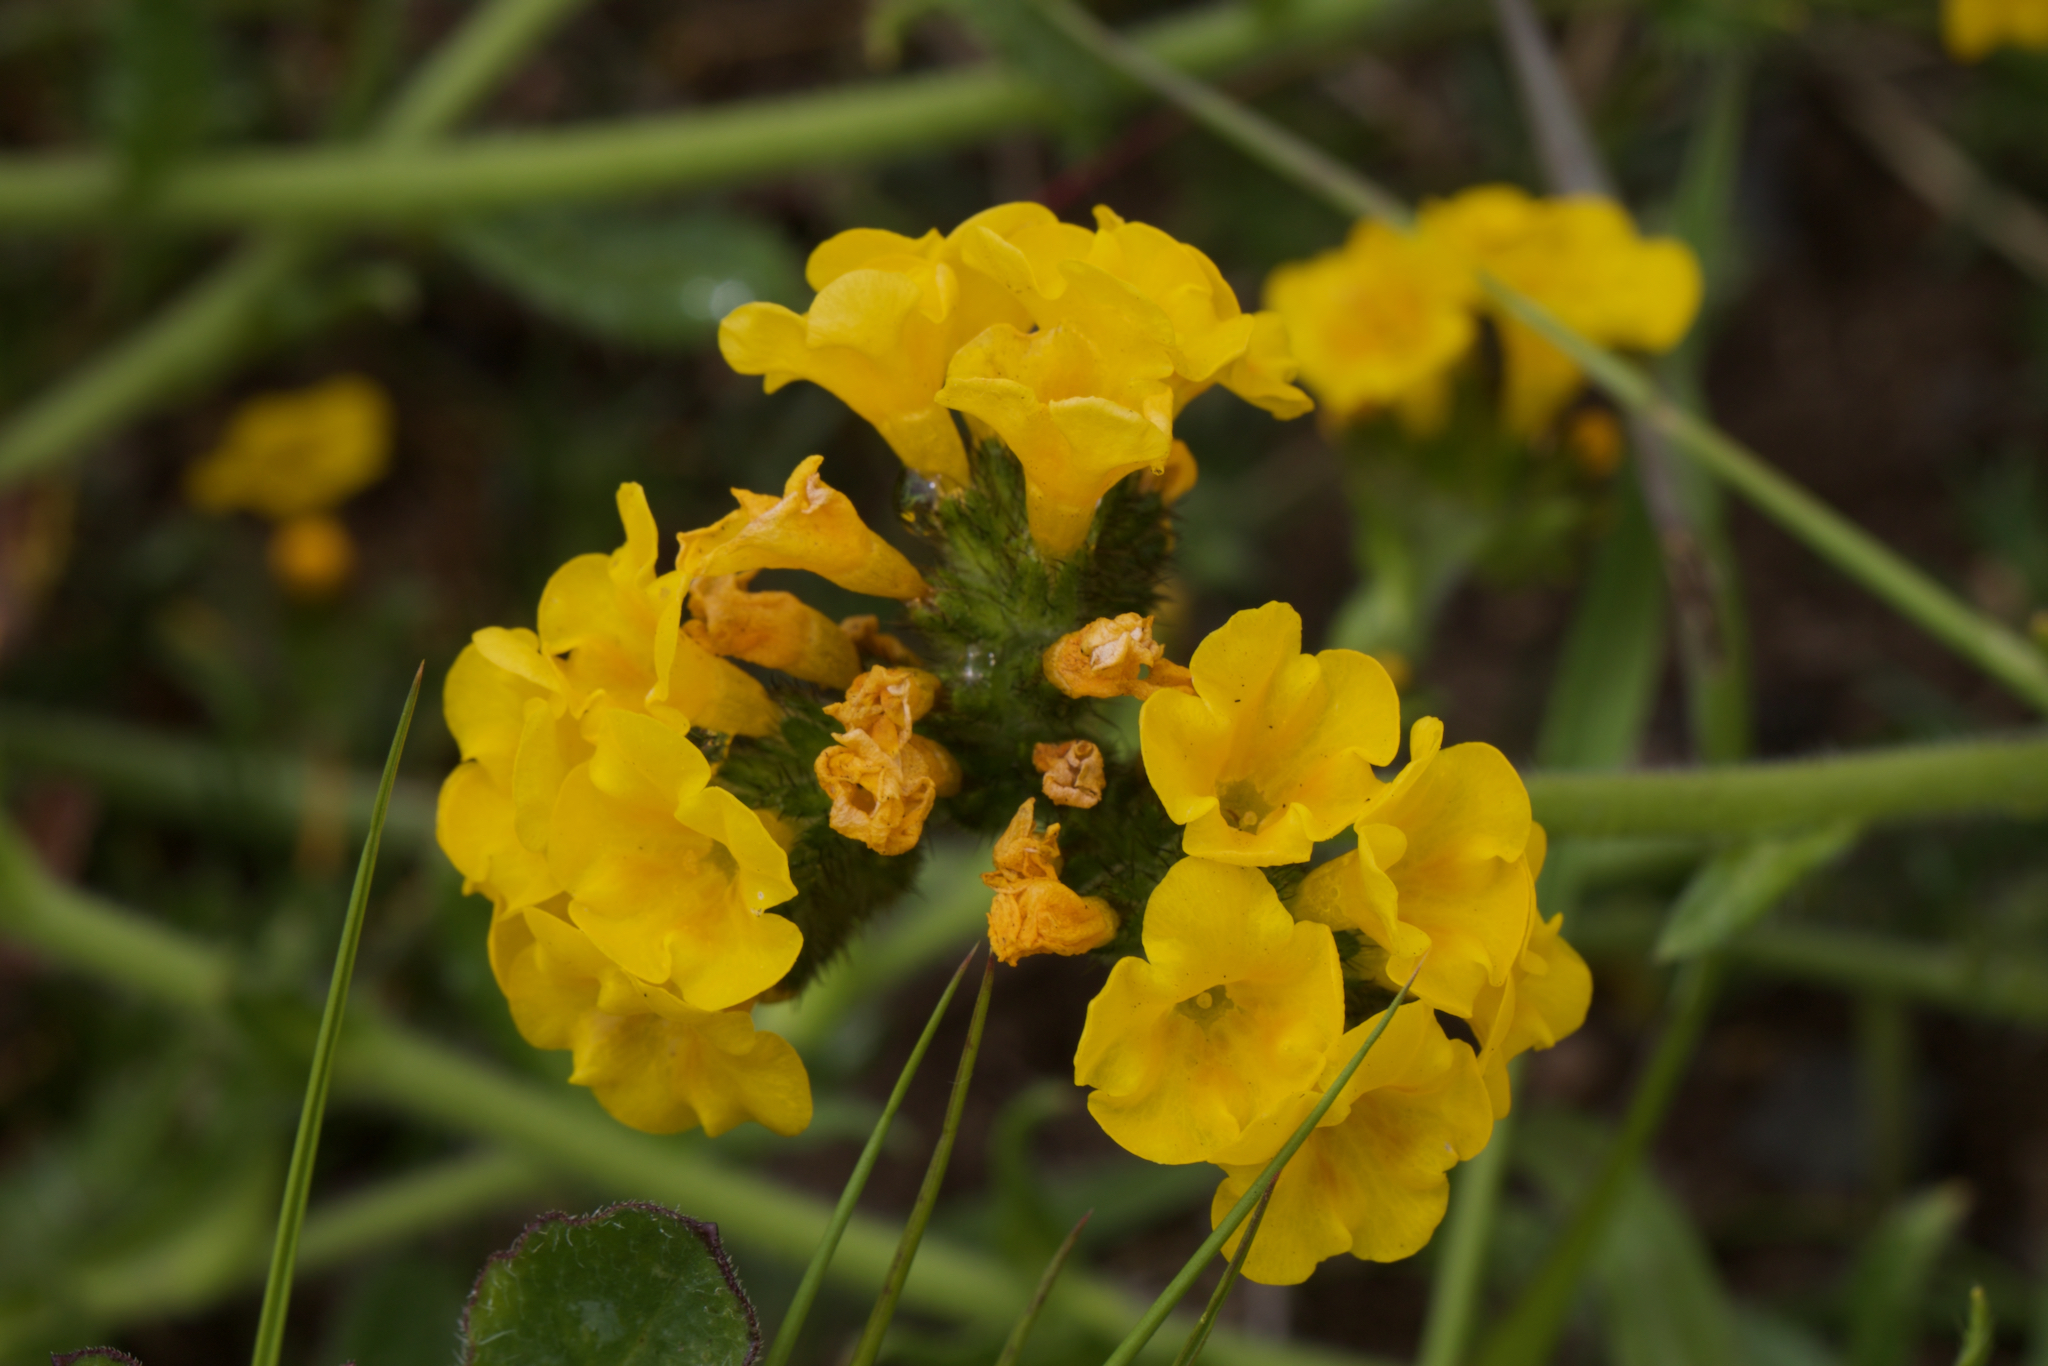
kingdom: Plantae
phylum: Tracheophyta
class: Magnoliopsida
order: Boraginales
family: Boraginaceae
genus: Amsinckia
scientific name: Amsinckia spectabilis
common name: Seaside fiddleneck
